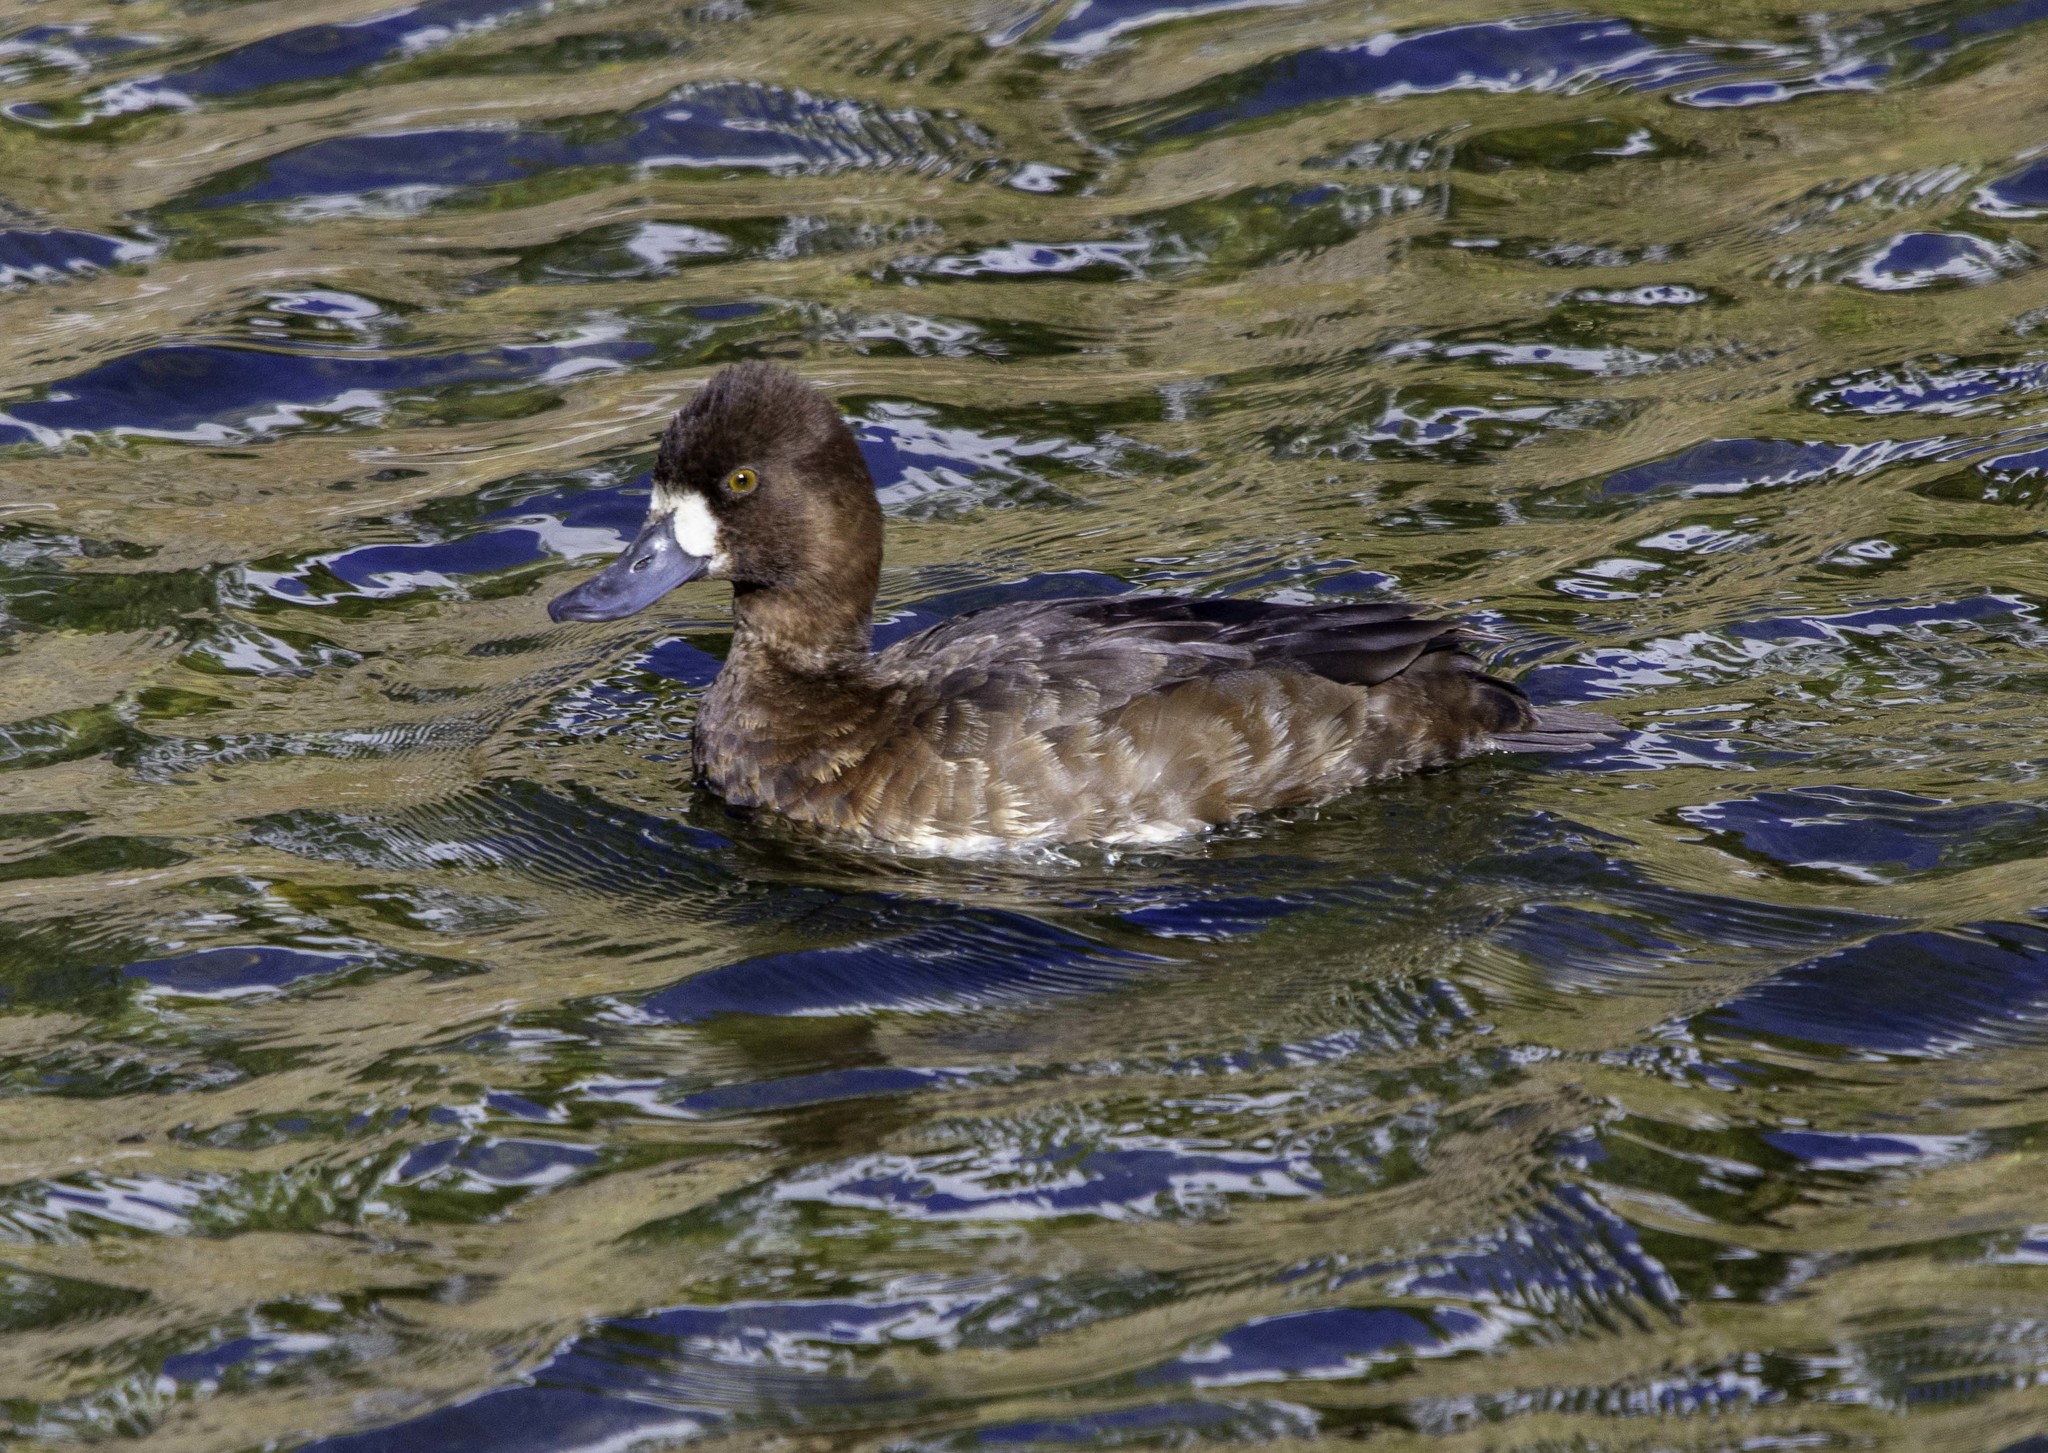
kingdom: Animalia
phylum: Chordata
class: Aves
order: Anseriformes
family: Anatidae
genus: Aythya
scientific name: Aythya affinis
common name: Lesser scaup
